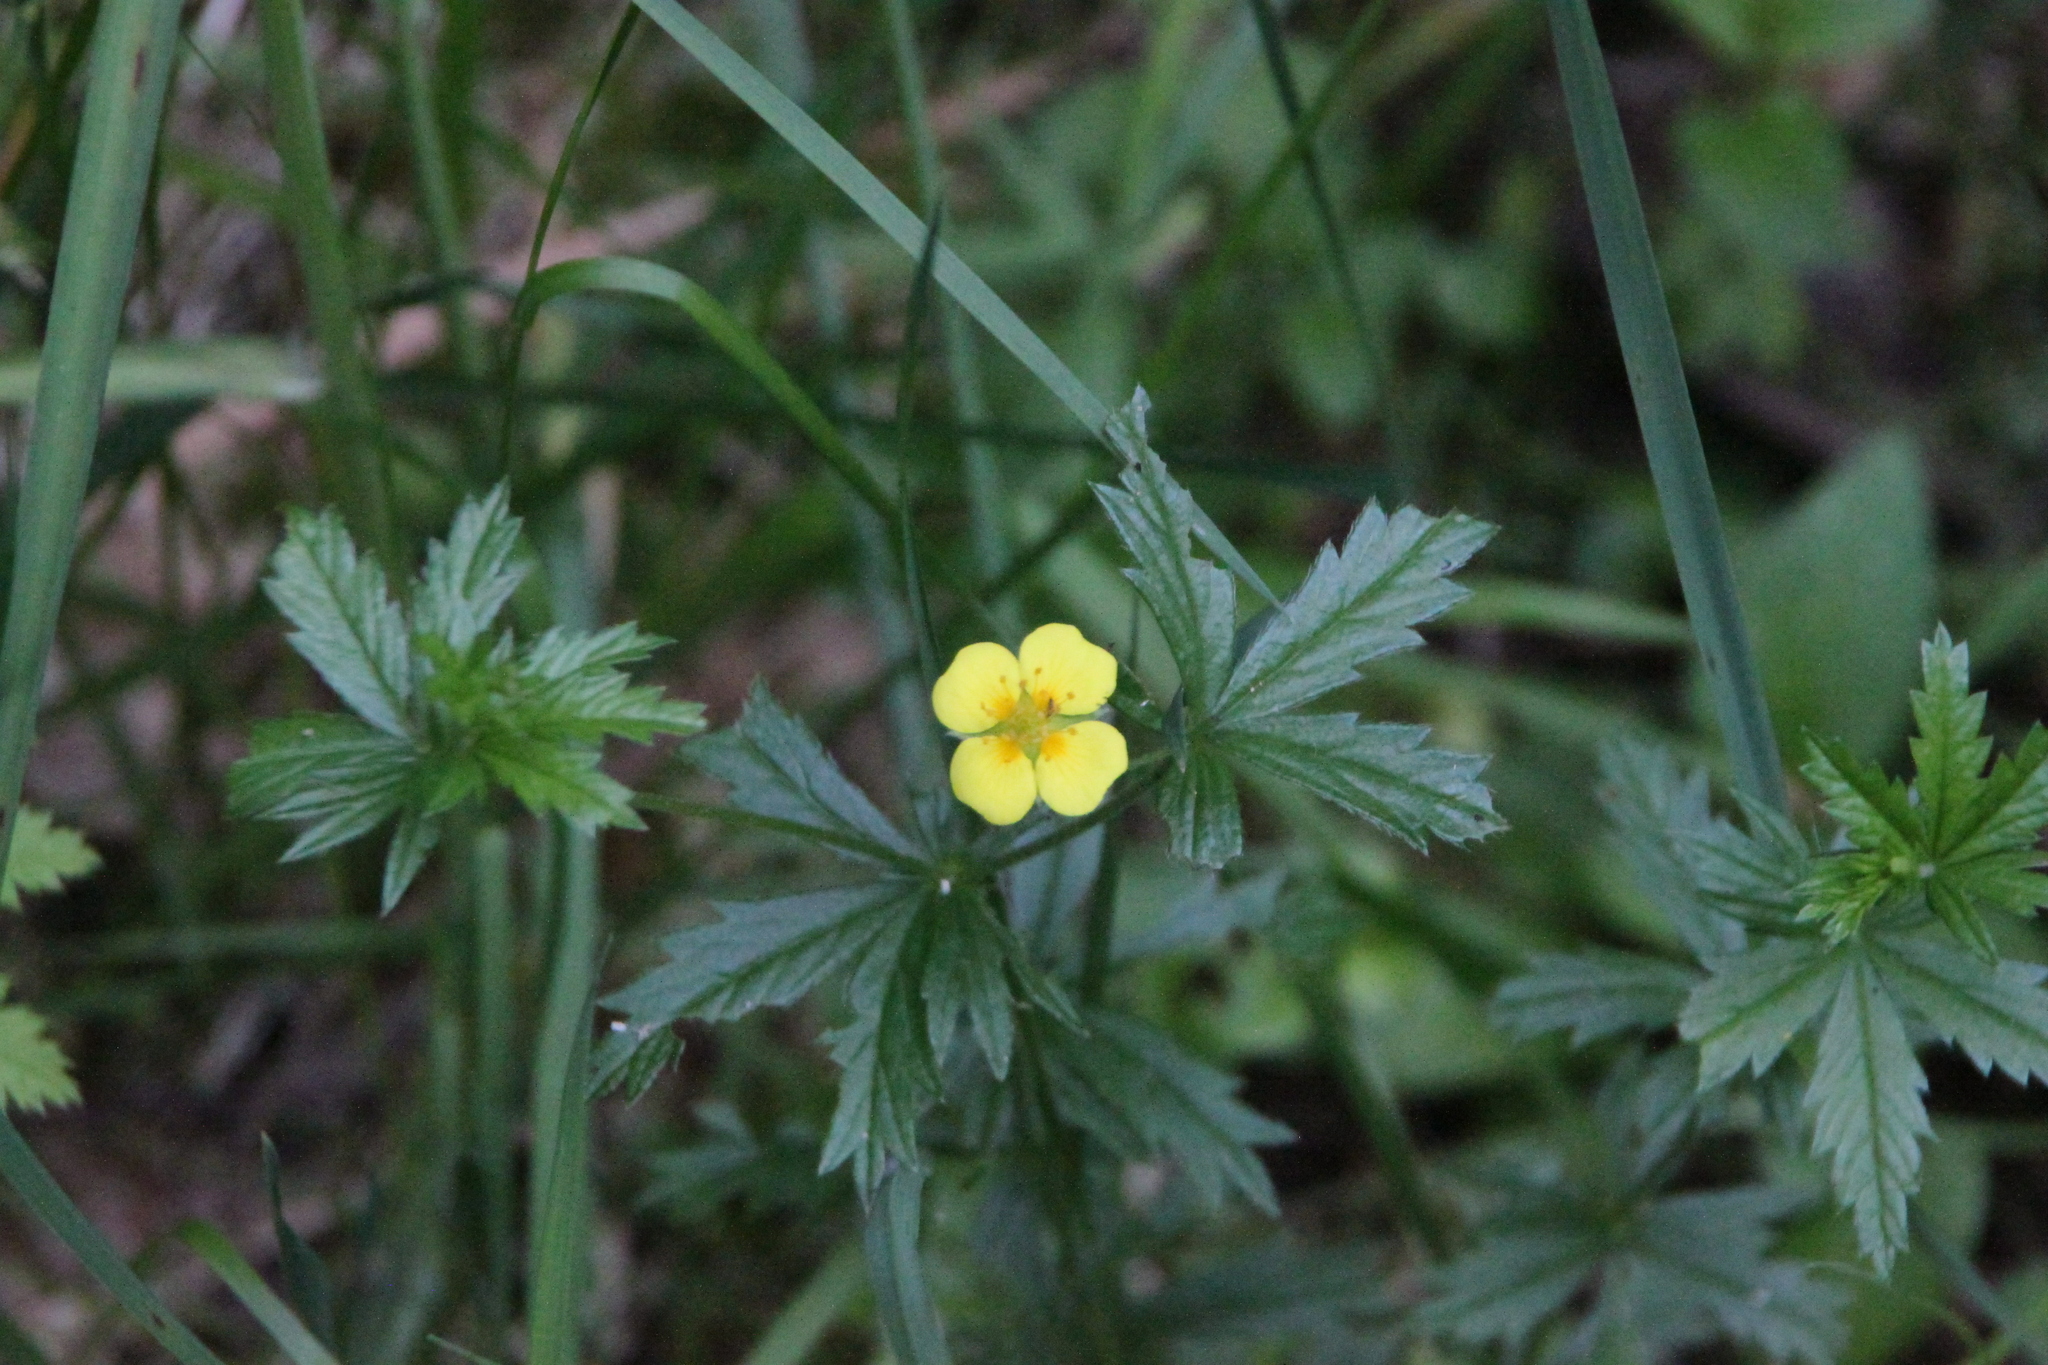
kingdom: Plantae
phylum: Tracheophyta
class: Magnoliopsida
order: Rosales
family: Rosaceae
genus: Potentilla
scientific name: Potentilla erecta
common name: Tormentil
